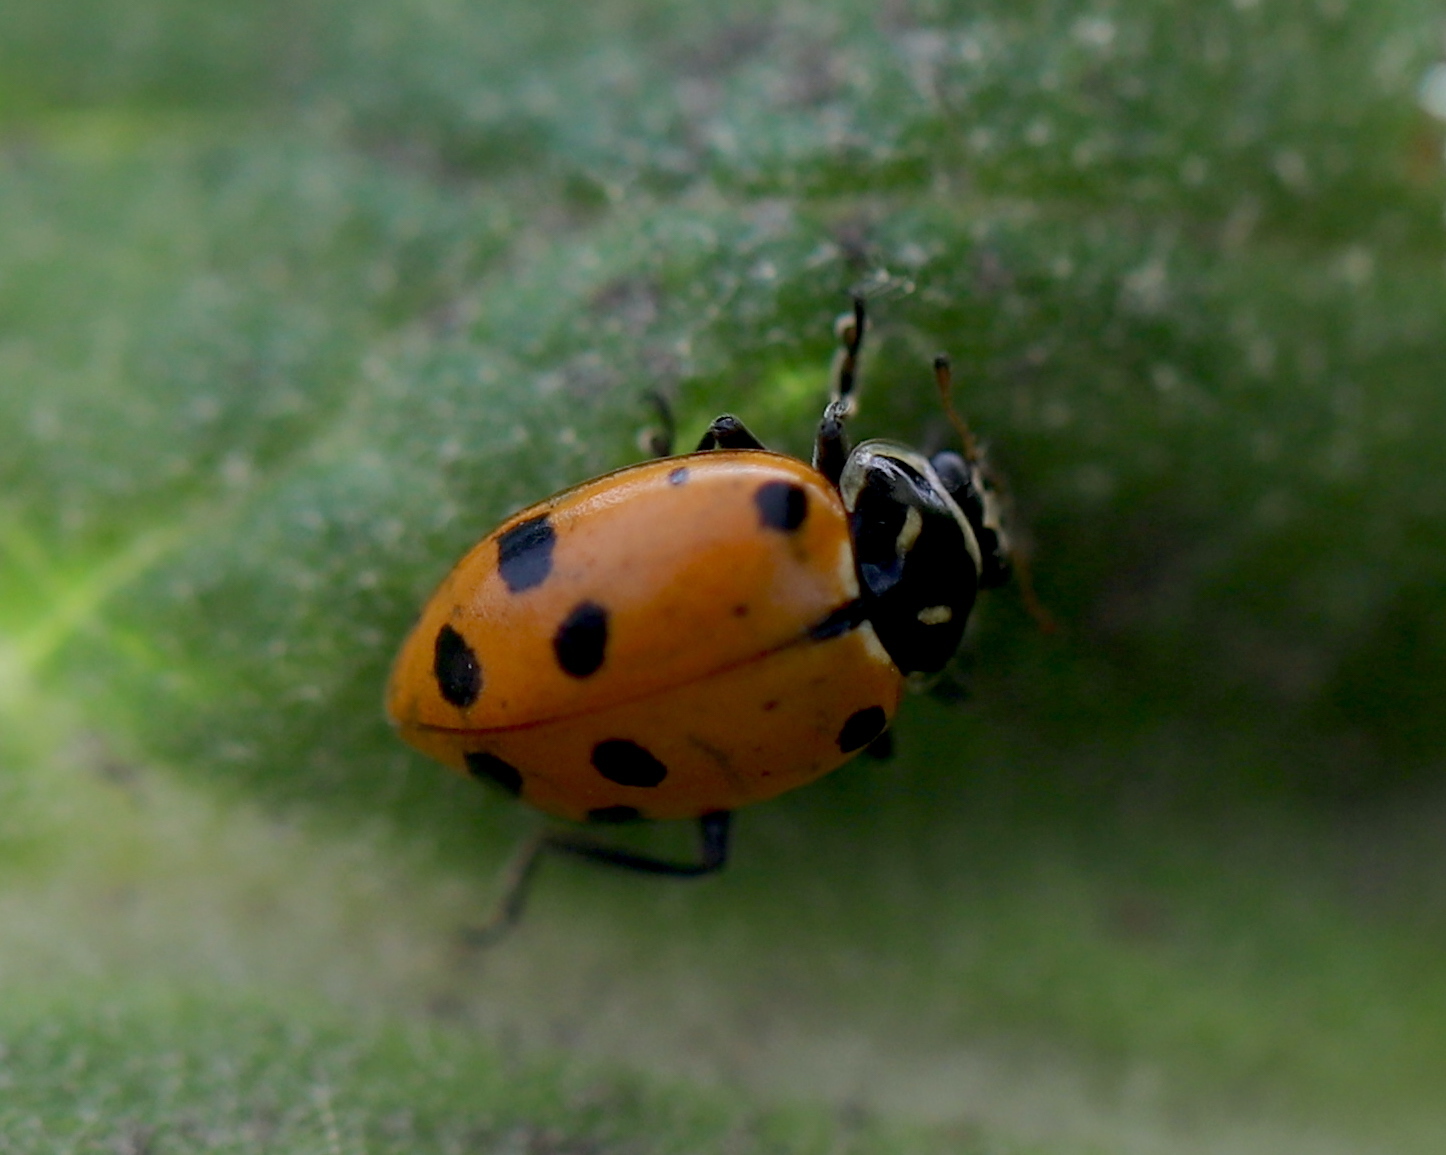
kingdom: Animalia
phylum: Arthropoda
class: Insecta
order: Coleoptera
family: Coccinellidae
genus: Hippodamia
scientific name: Hippodamia convergens
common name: Convergent lady beetle
